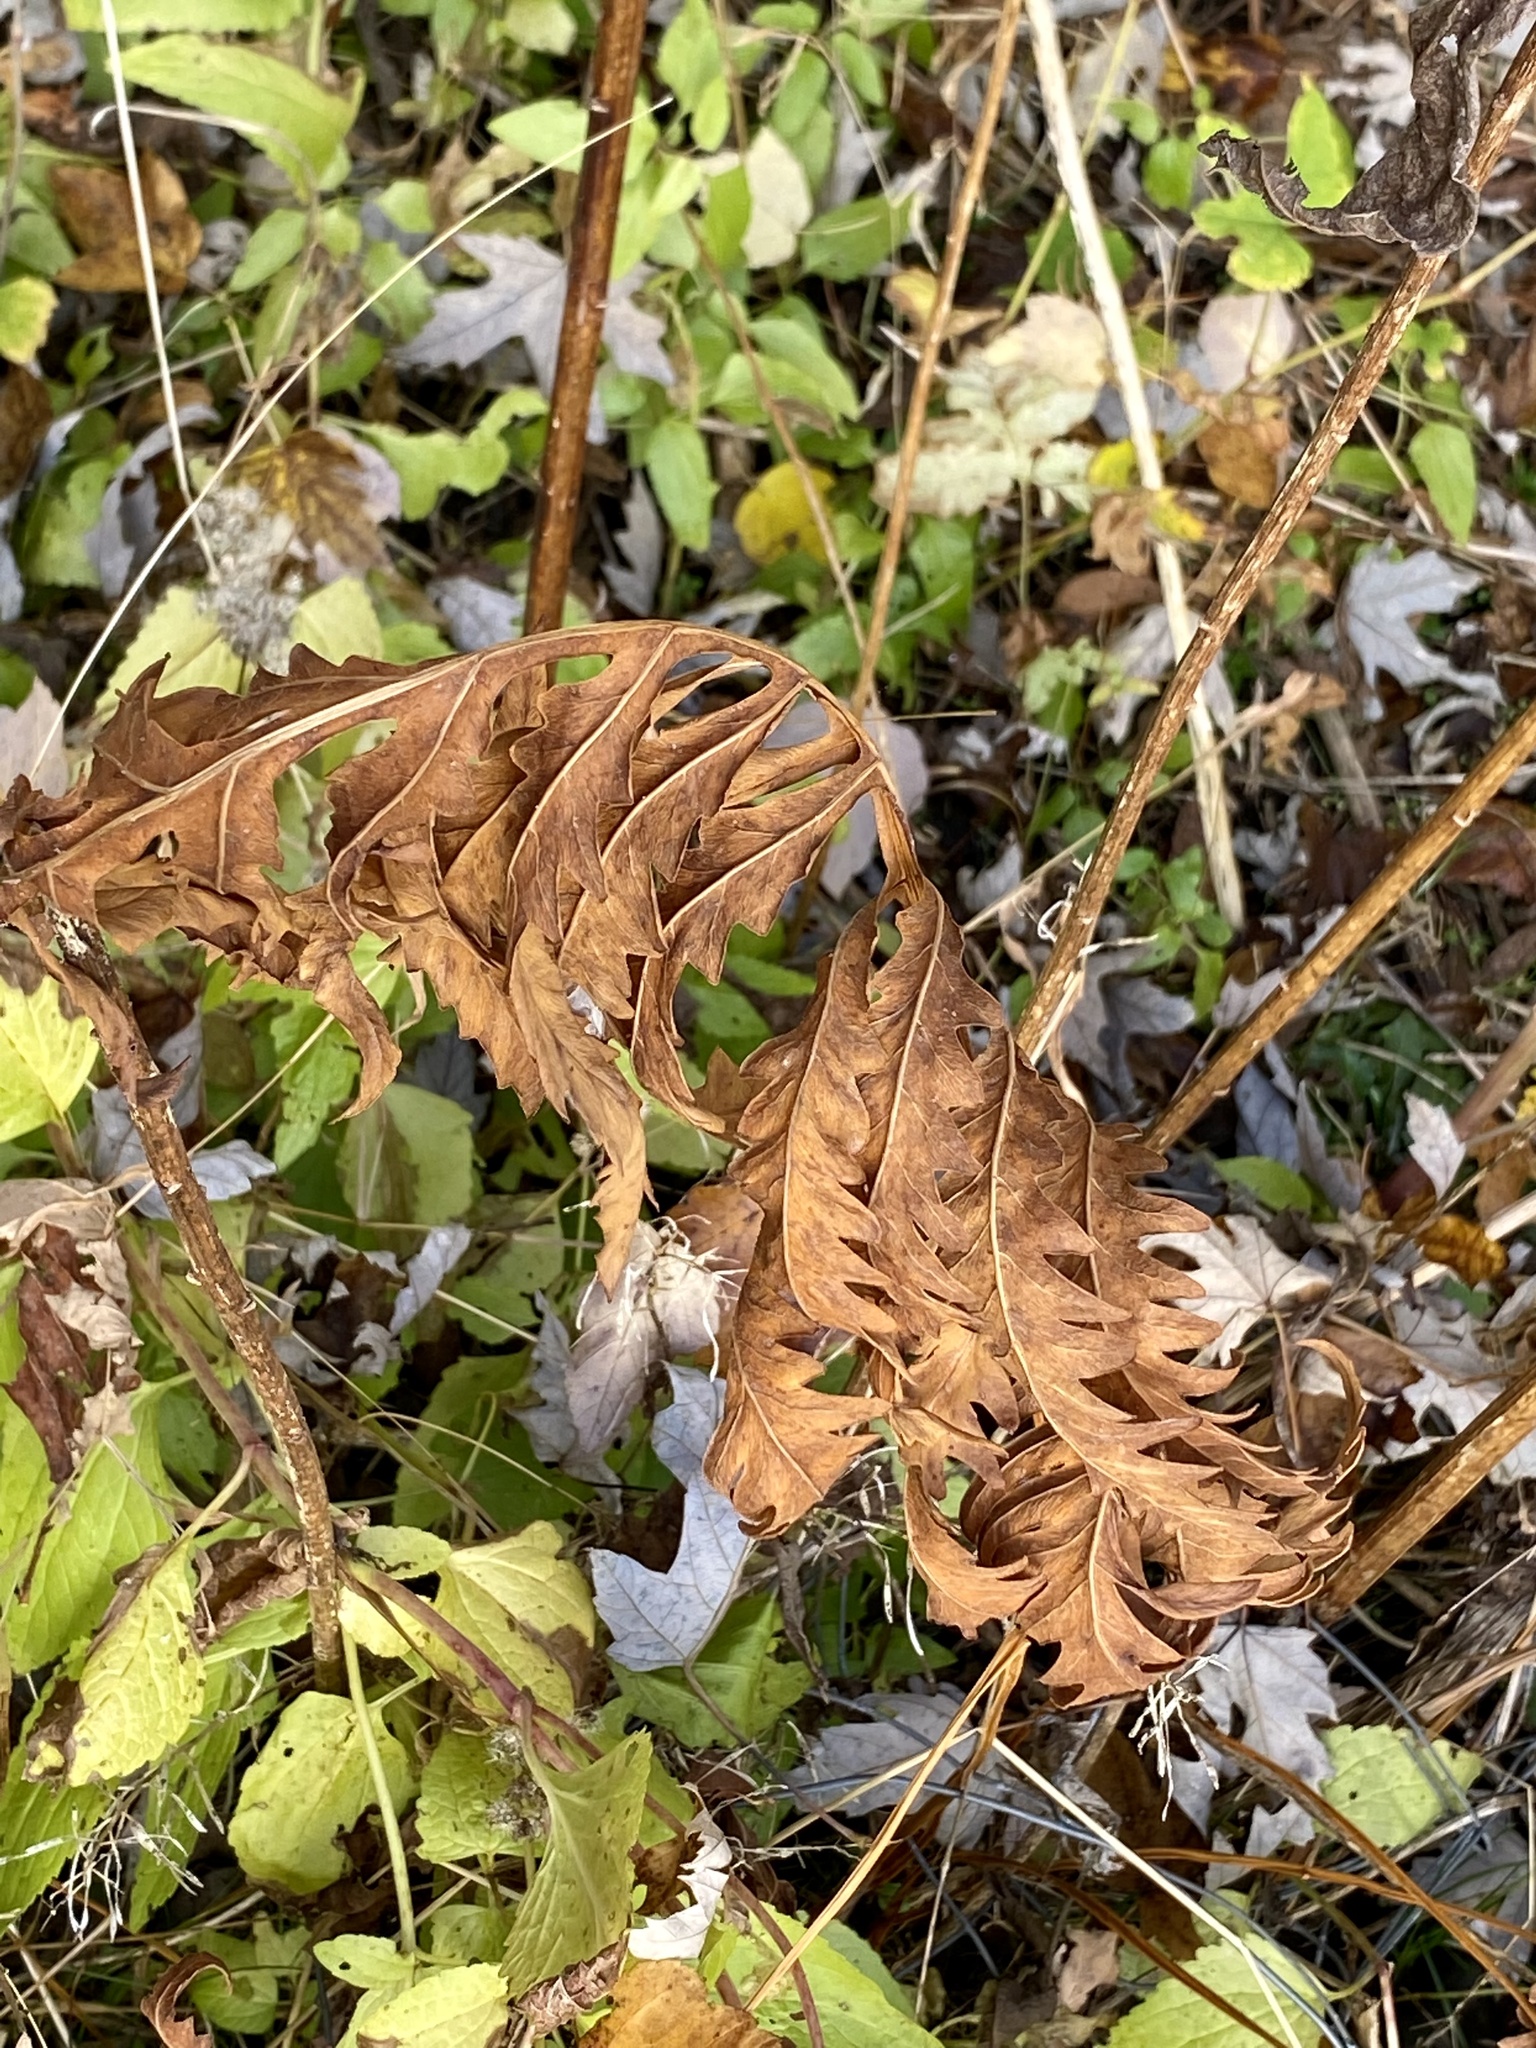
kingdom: Plantae
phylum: Tracheophyta
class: Polypodiopsida
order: Polypodiales
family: Onocleaceae
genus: Onoclea
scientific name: Onoclea sensibilis
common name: Sensitive fern
